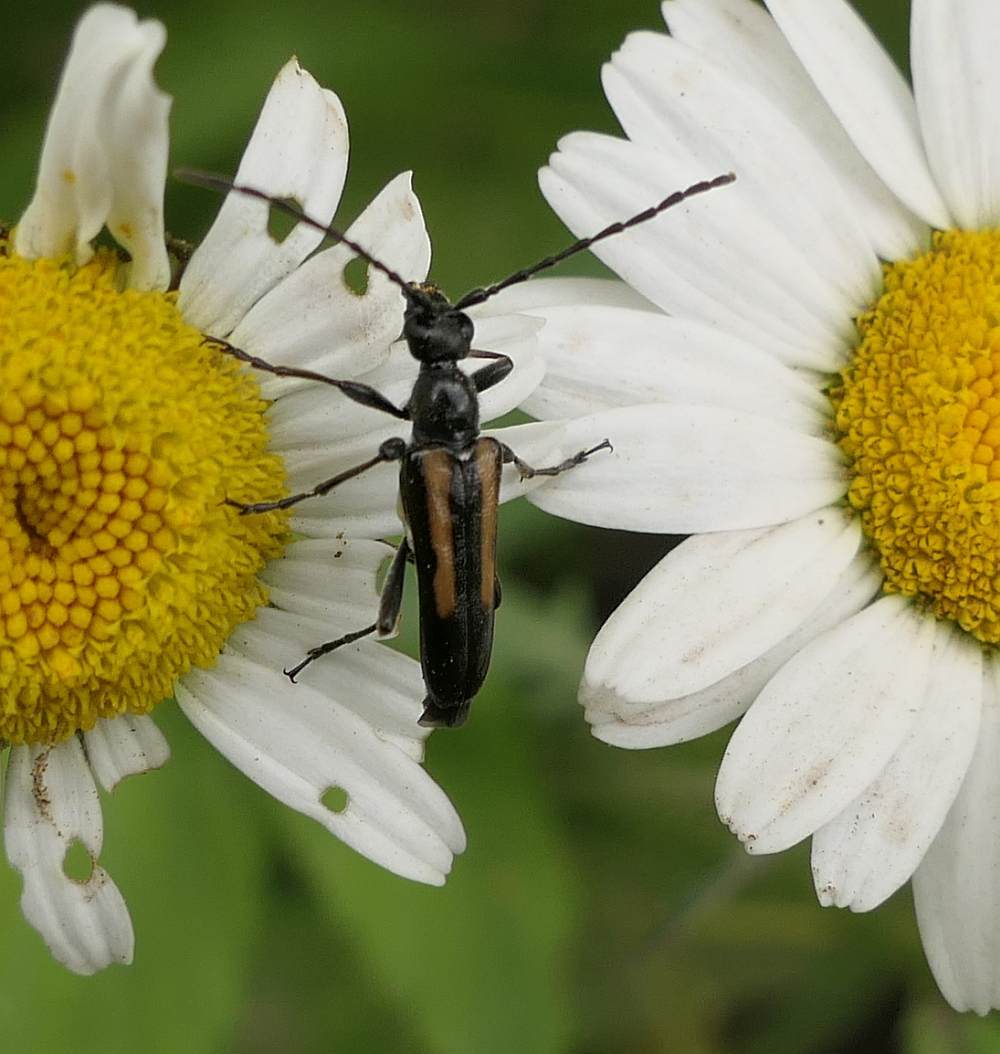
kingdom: Animalia
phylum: Arthropoda
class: Insecta
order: Coleoptera
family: Cerambycidae
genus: Strangalepta
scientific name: Strangalepta abbreviata
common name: Strangalepta flower longhorn beetle
